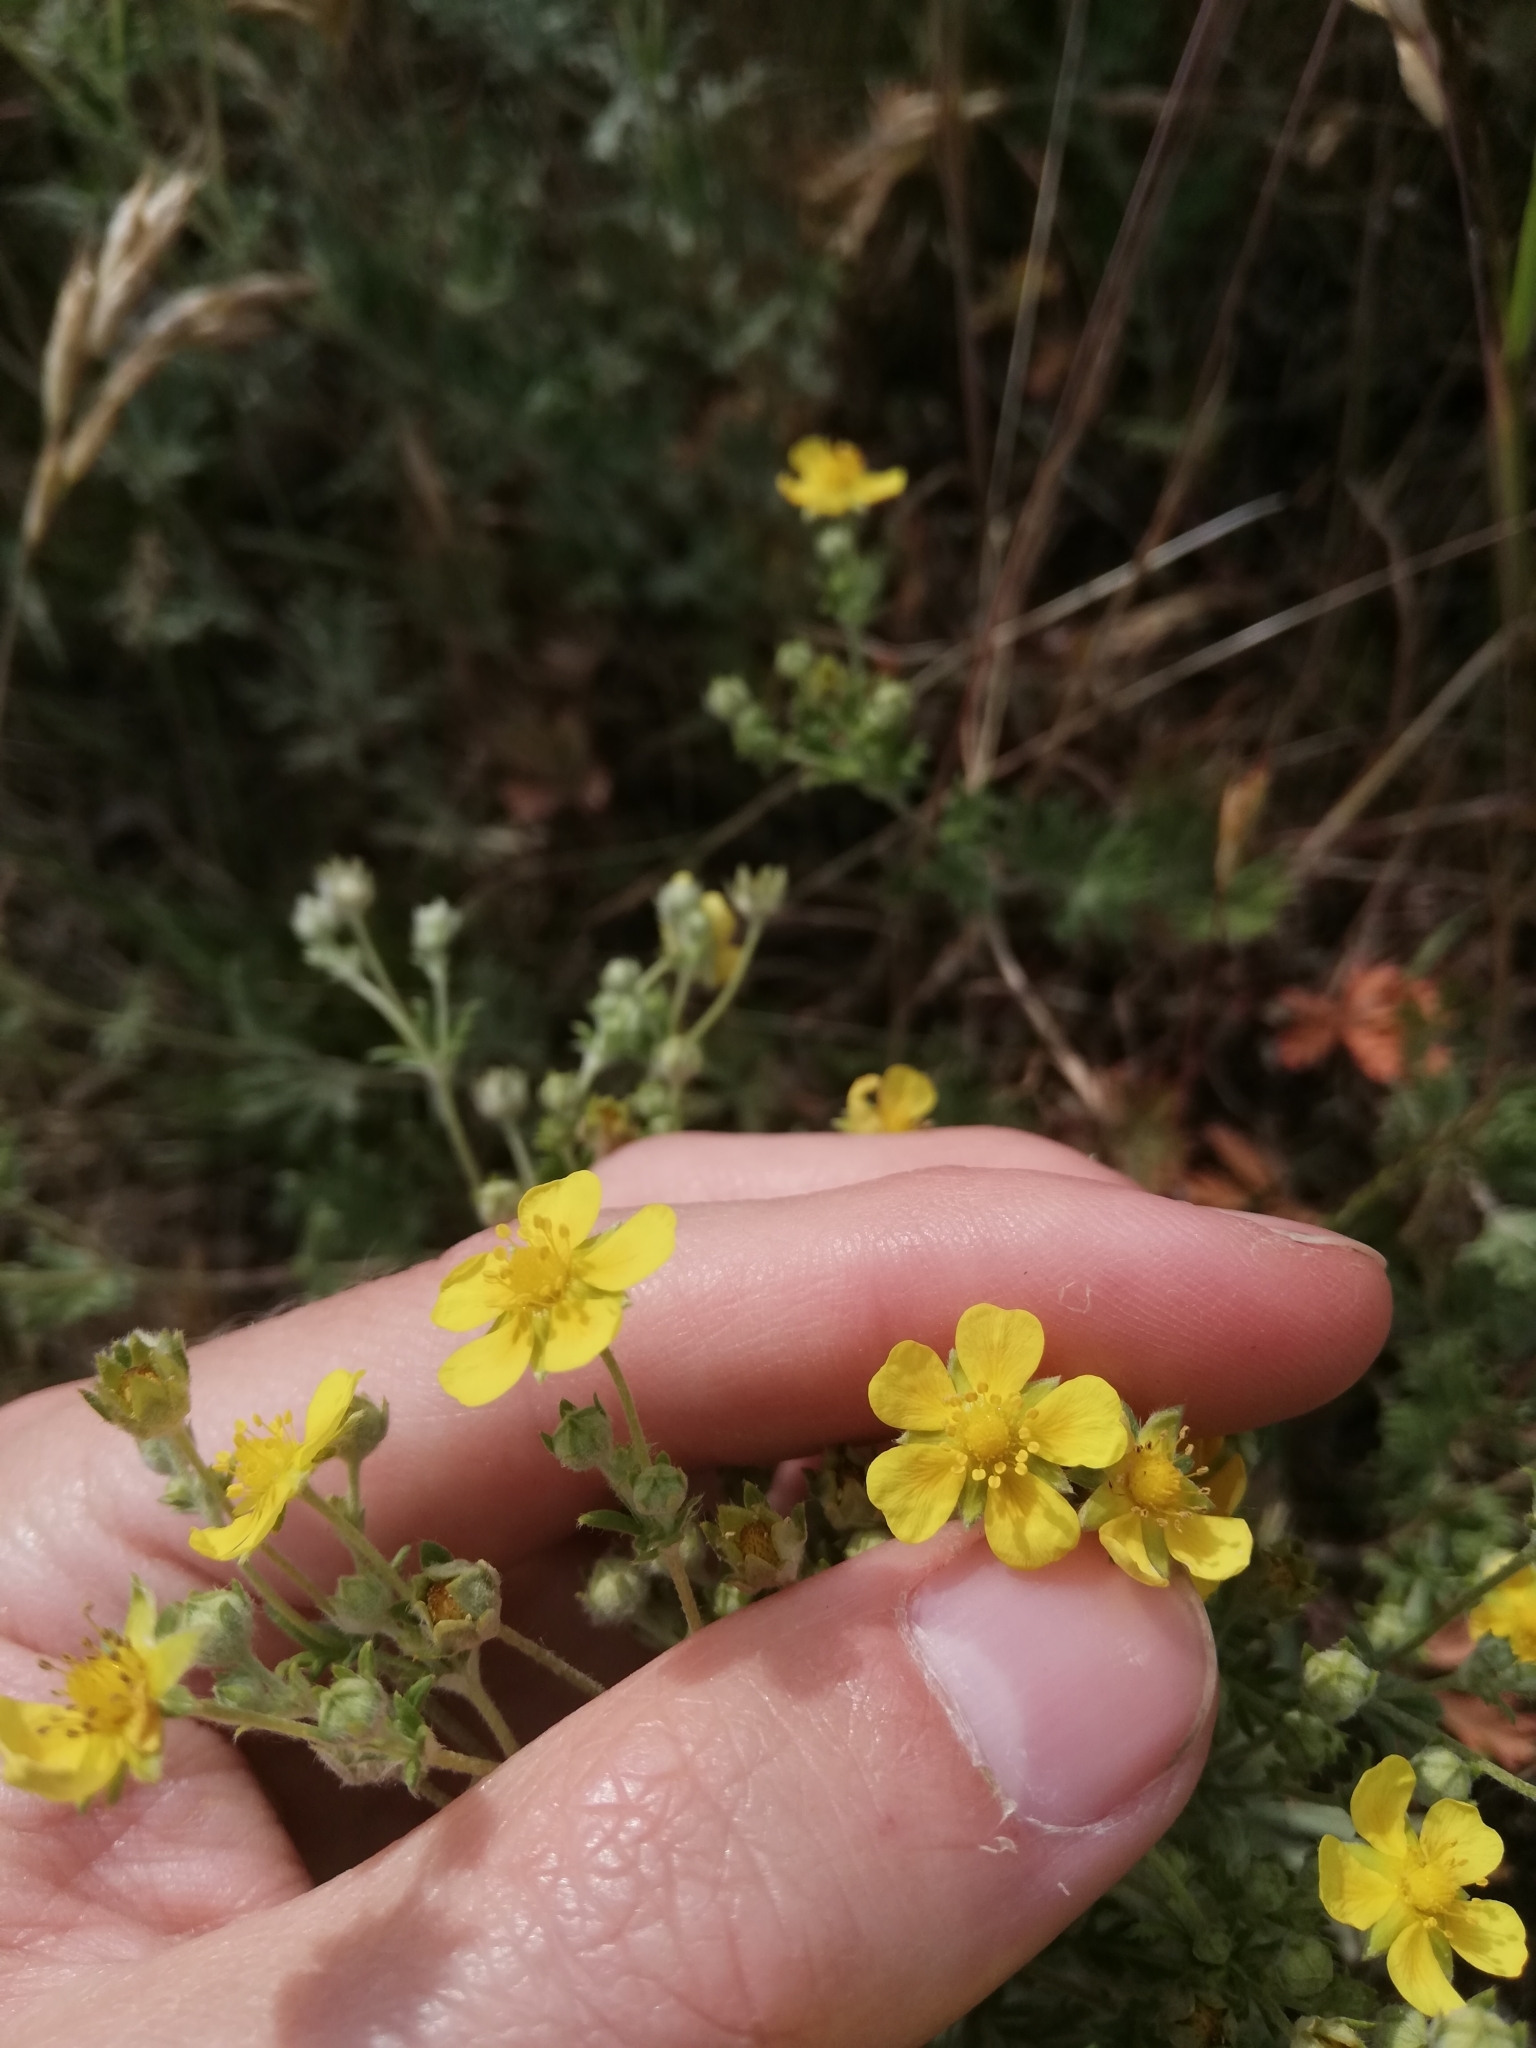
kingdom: Plantae
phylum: Tracheophyta
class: Magnoliopsida
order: Rosales
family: Rosaceae
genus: Potentilla
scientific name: Potentilla argentea
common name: Hoary cinquefoil
